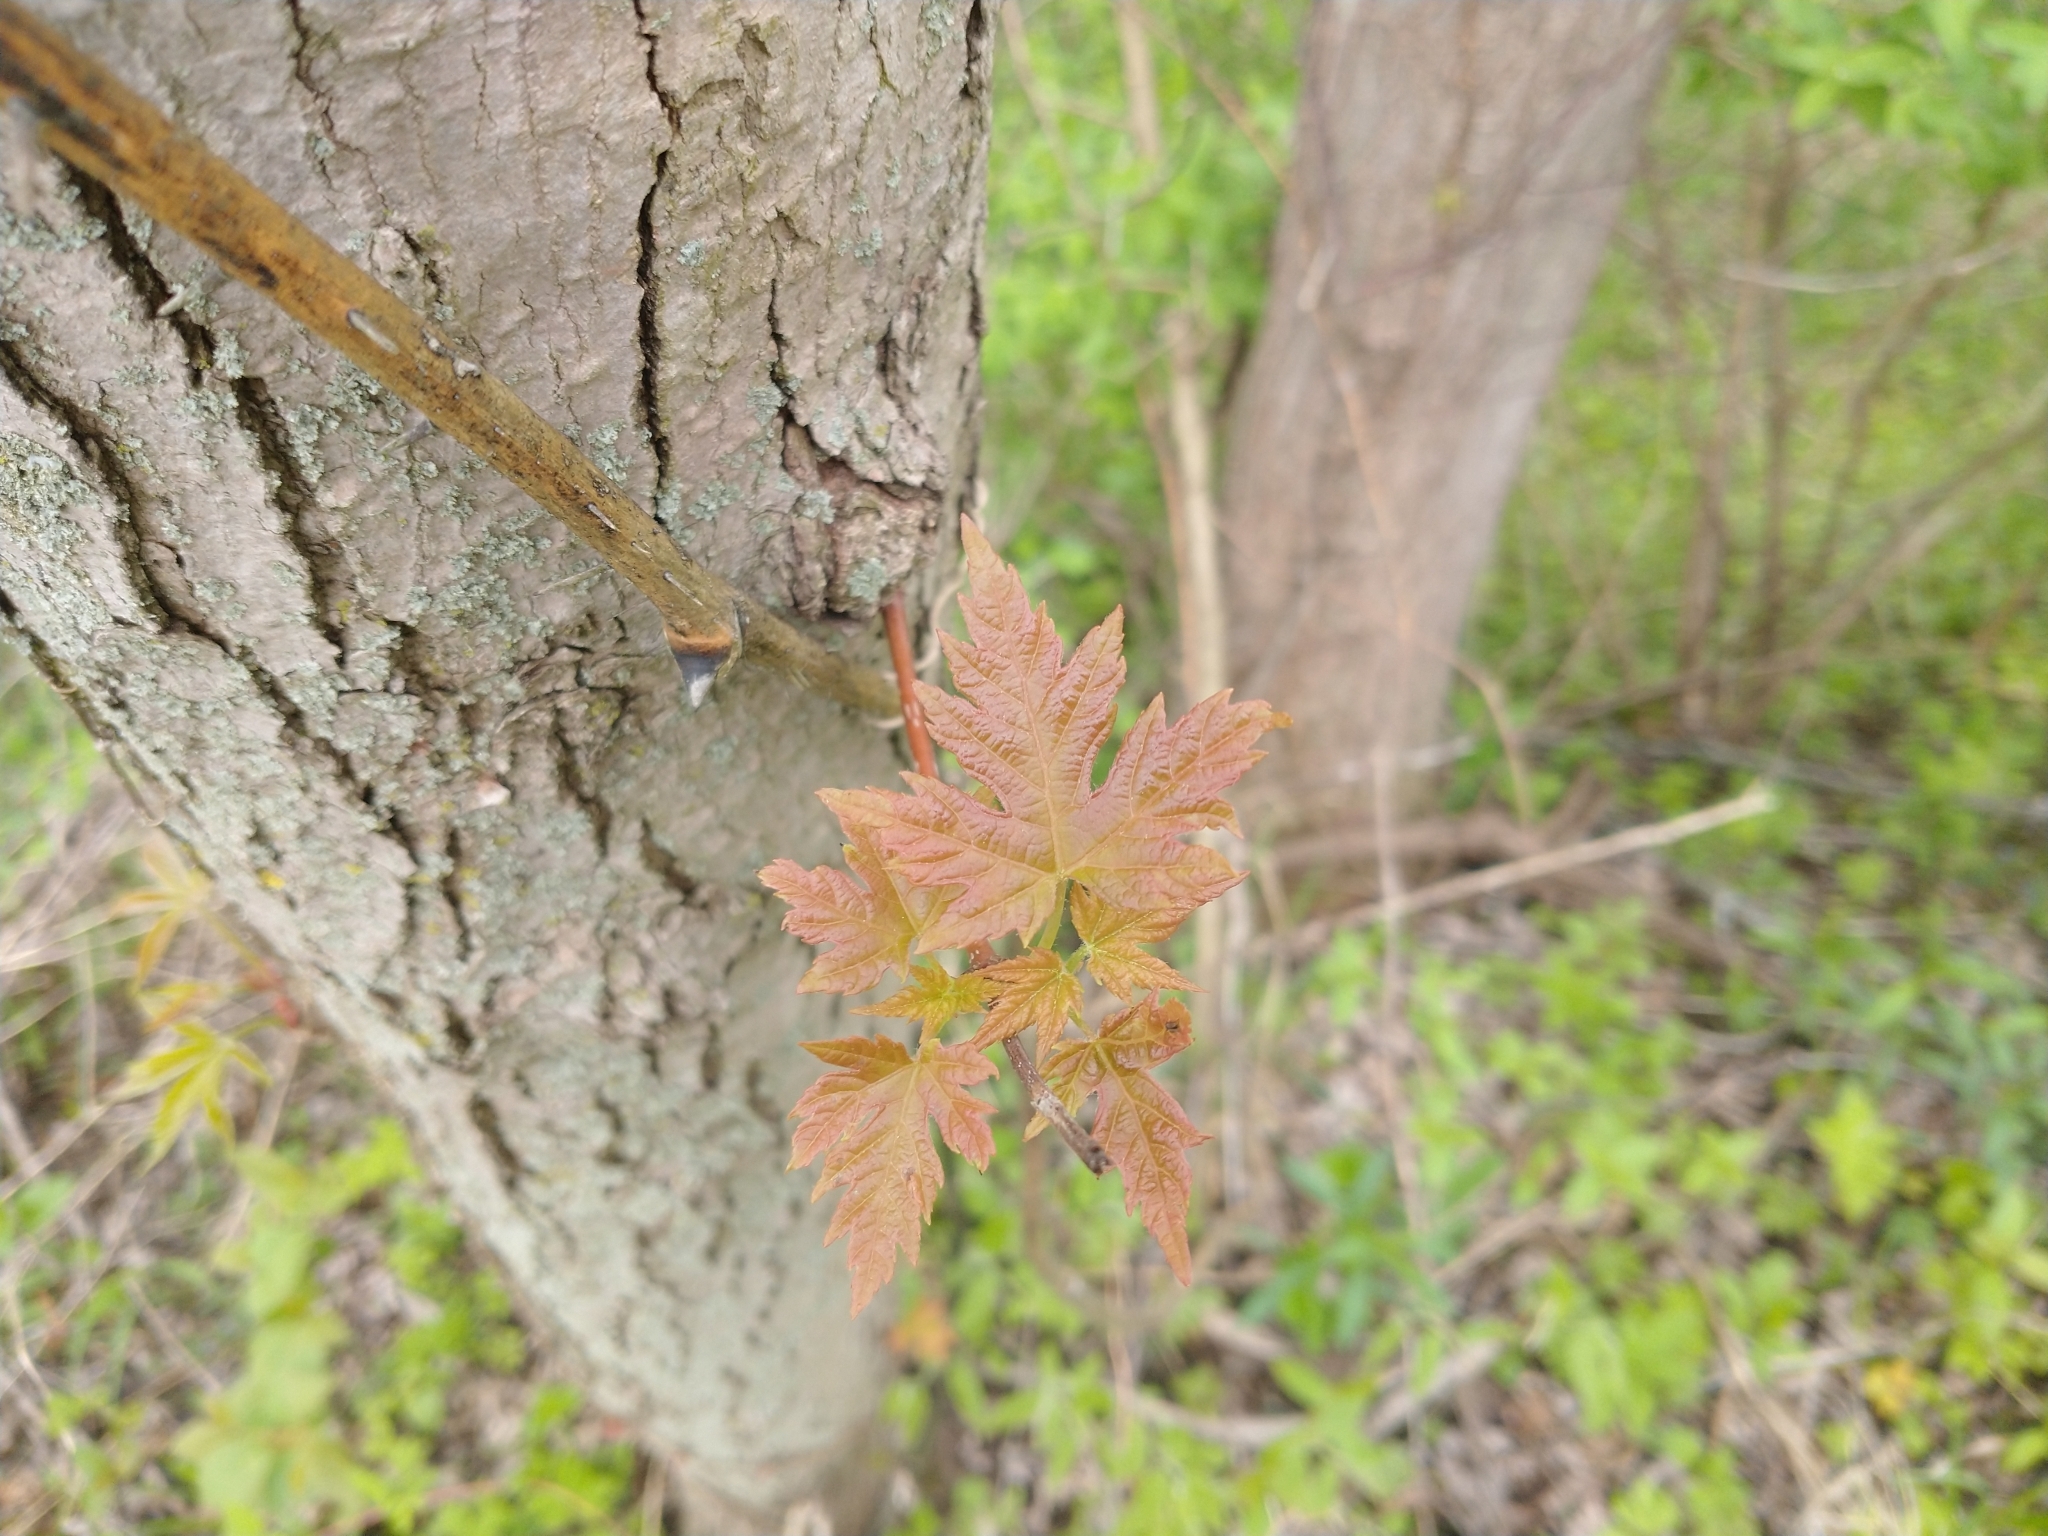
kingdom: Plantae
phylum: Tracheophyta
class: Magnoliopsida
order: Sapindales
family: Sapindaceae
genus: Acer
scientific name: Acer saccharinum
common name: Silver maple
